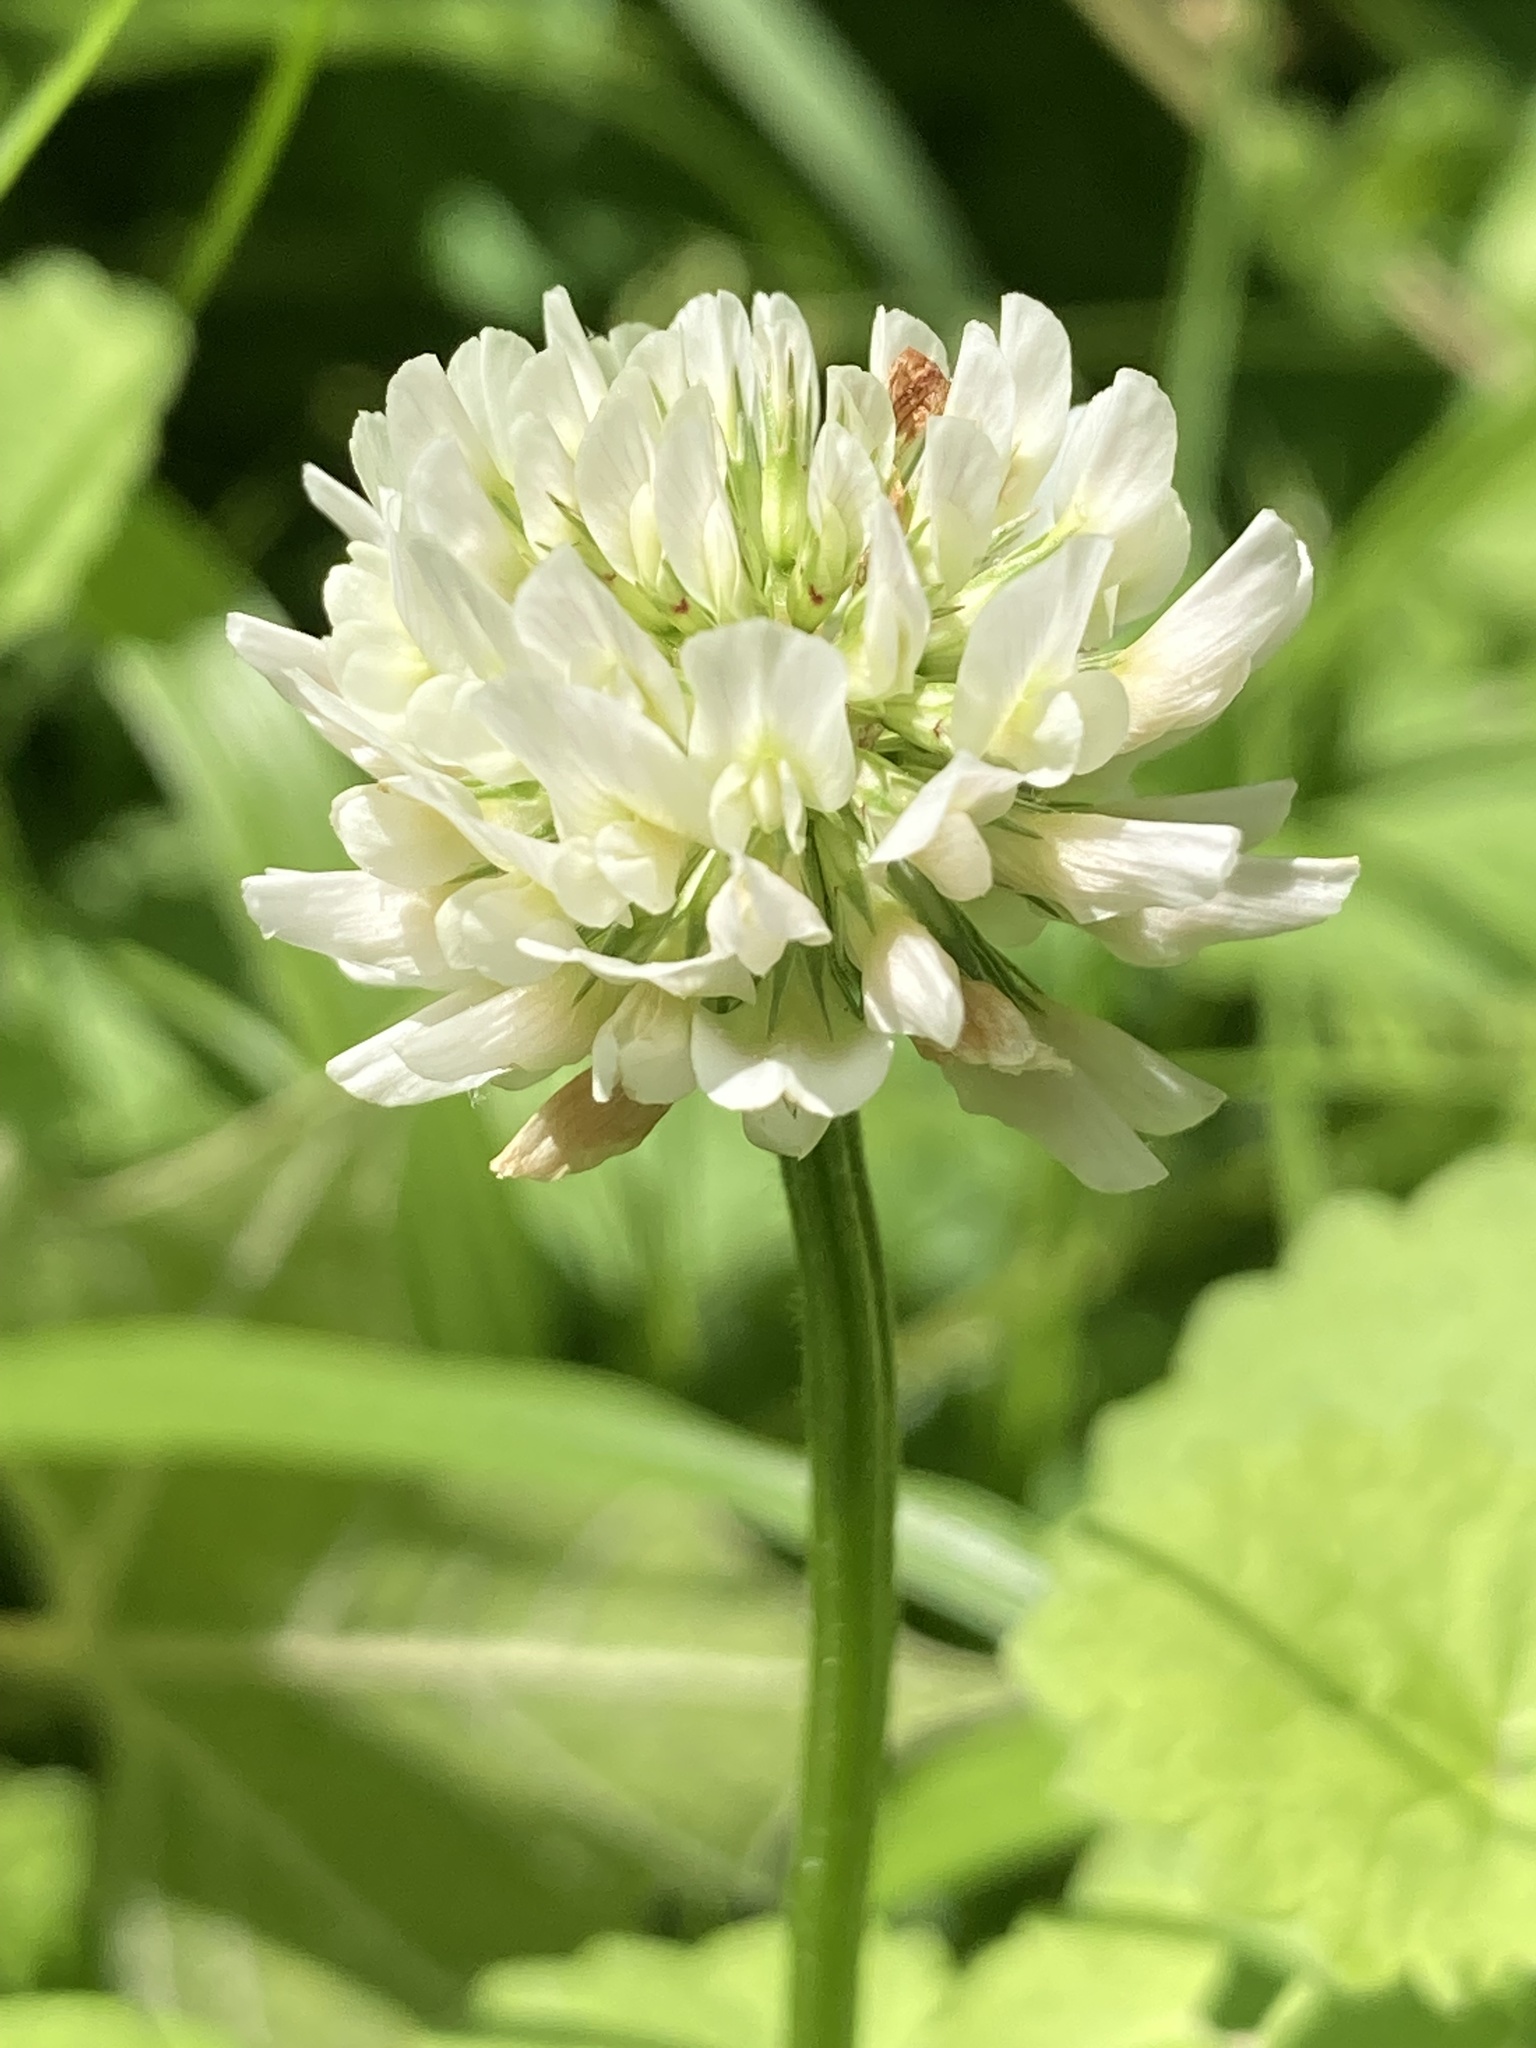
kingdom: Plantae
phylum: Tracheophyta
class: Magnoliopsida
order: Fabales
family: Fabaceae
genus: Trifolium
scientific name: Trifolium repens
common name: White clover
